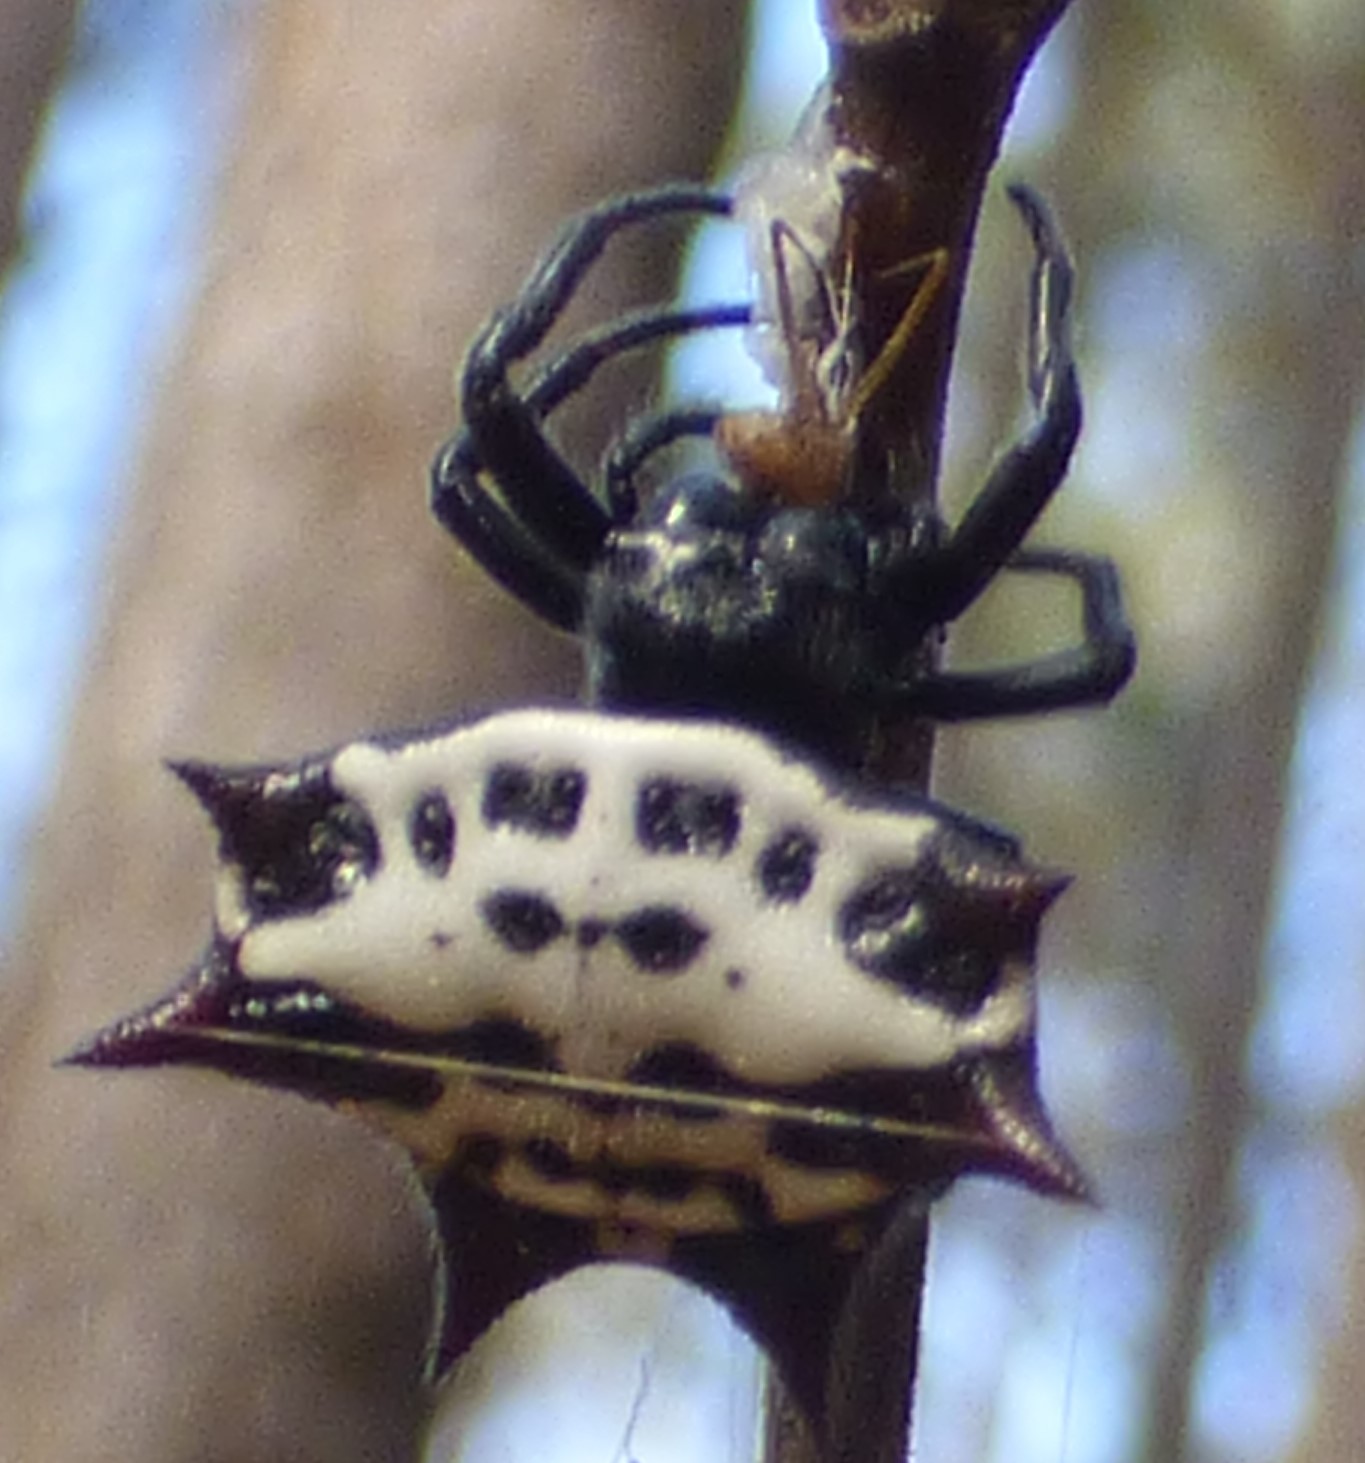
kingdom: Animalia
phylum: Arthropoda
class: Arachnida
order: Araneae
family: Araneidae
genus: Gasteracantha
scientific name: Gasteracantha cancriformis
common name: Orb weavers
